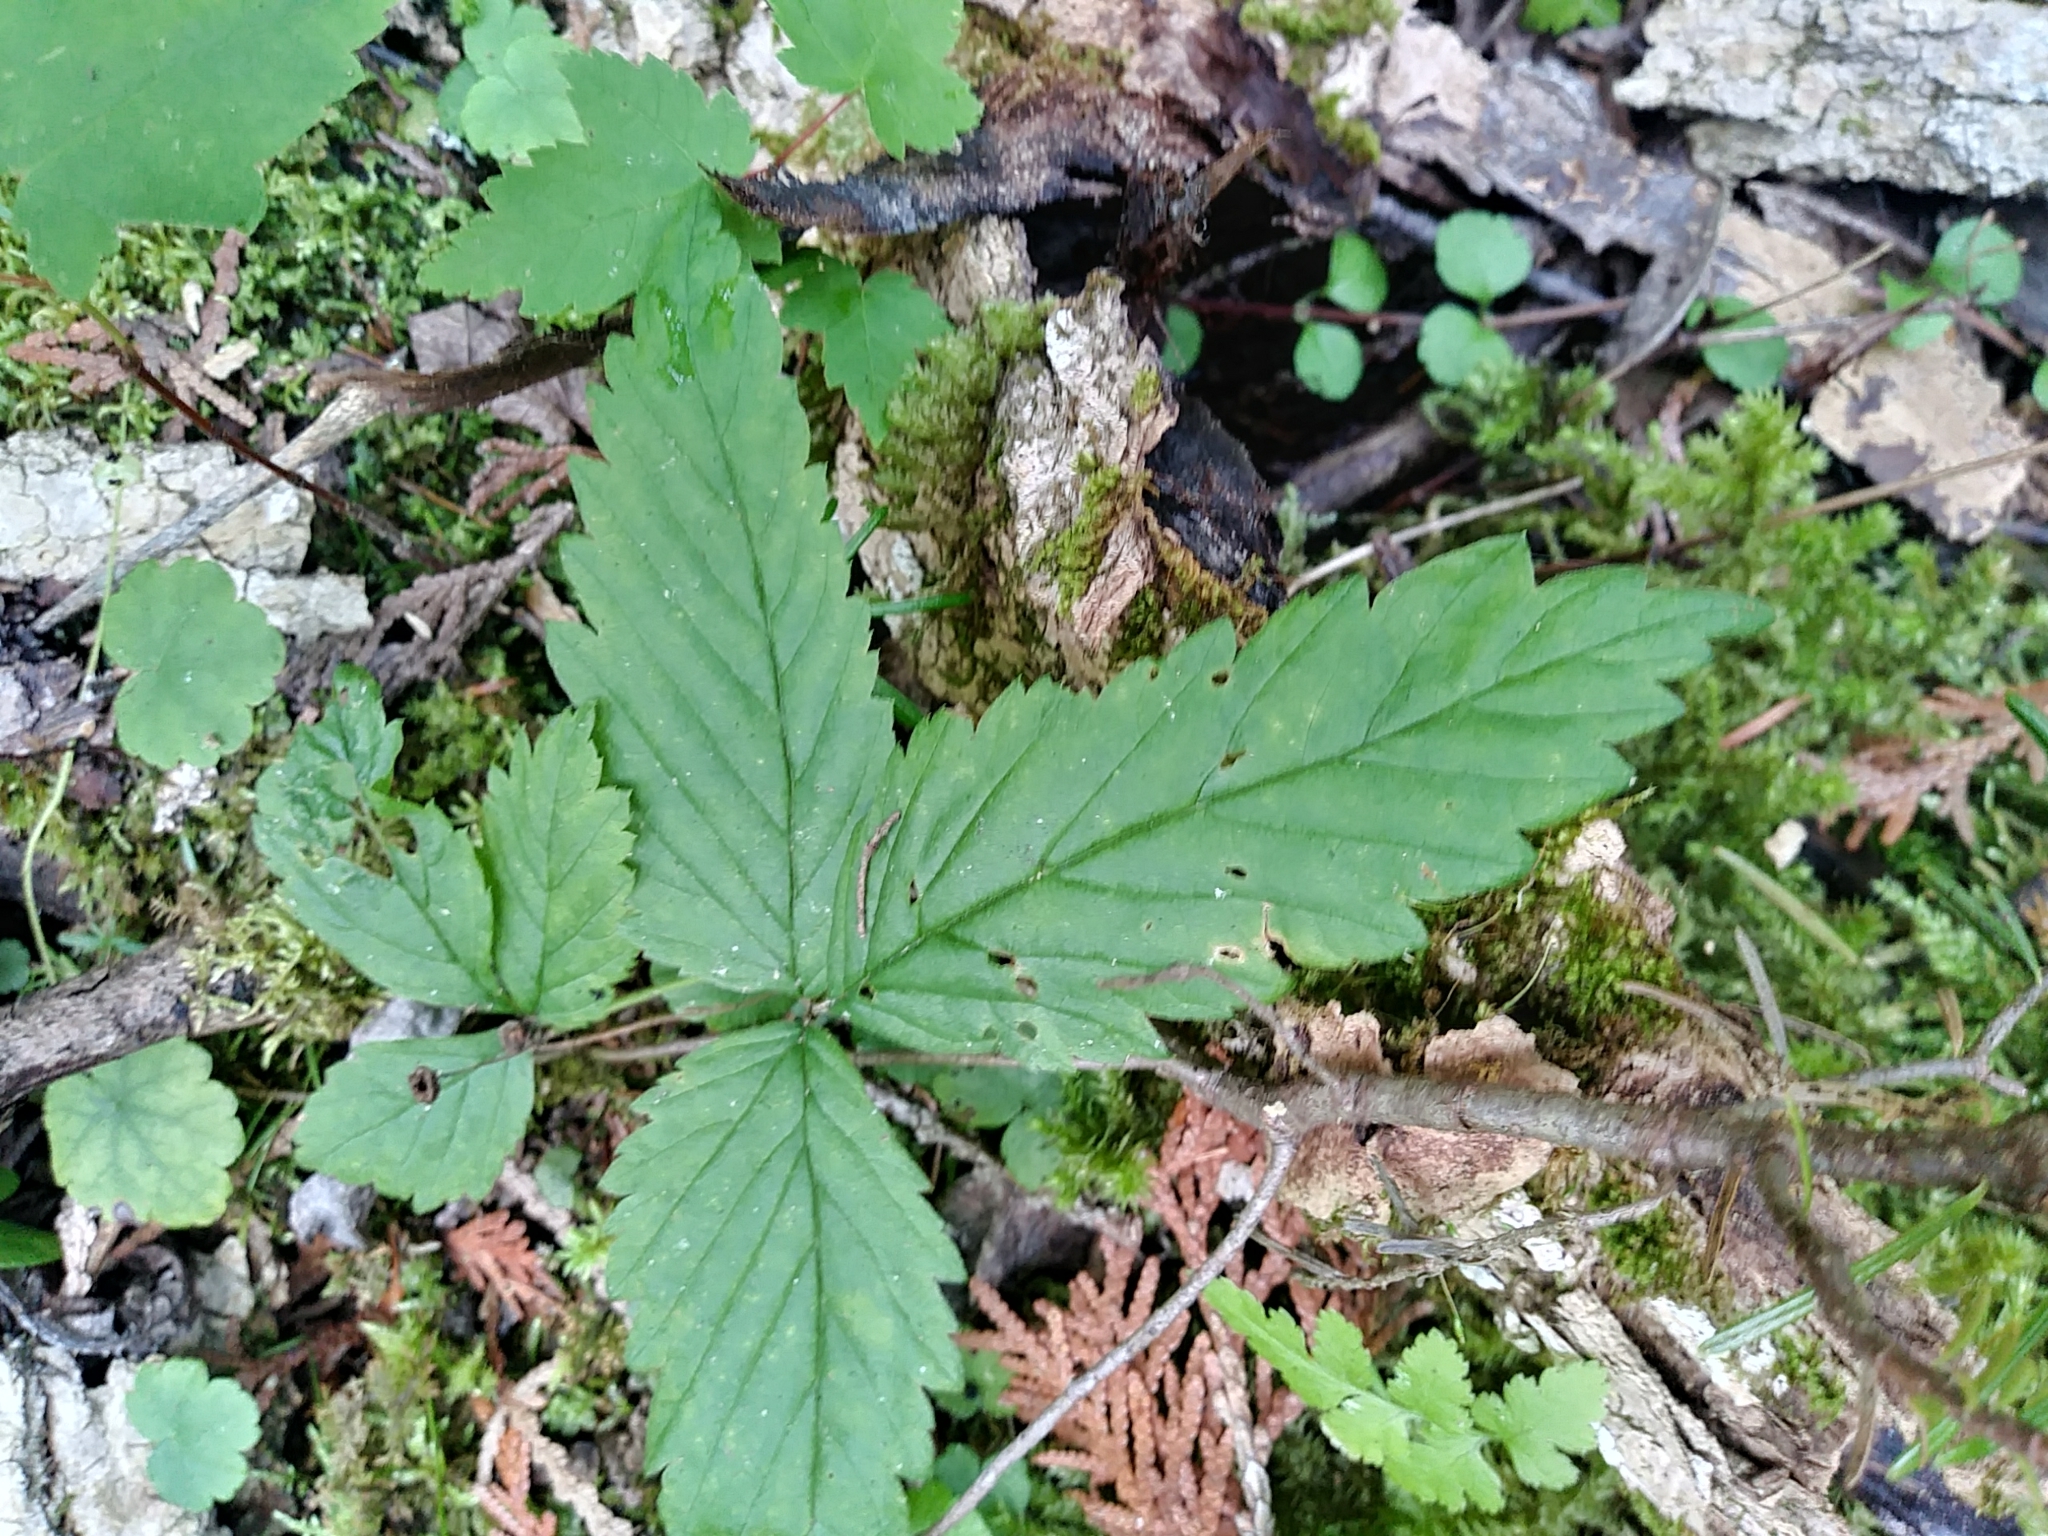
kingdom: Plantae
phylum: Tracheophyta
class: Magnoliopsida
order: Rosales
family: Rosaceae
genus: Rubus
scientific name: Rubus pubescens
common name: Dwarf raspberry
